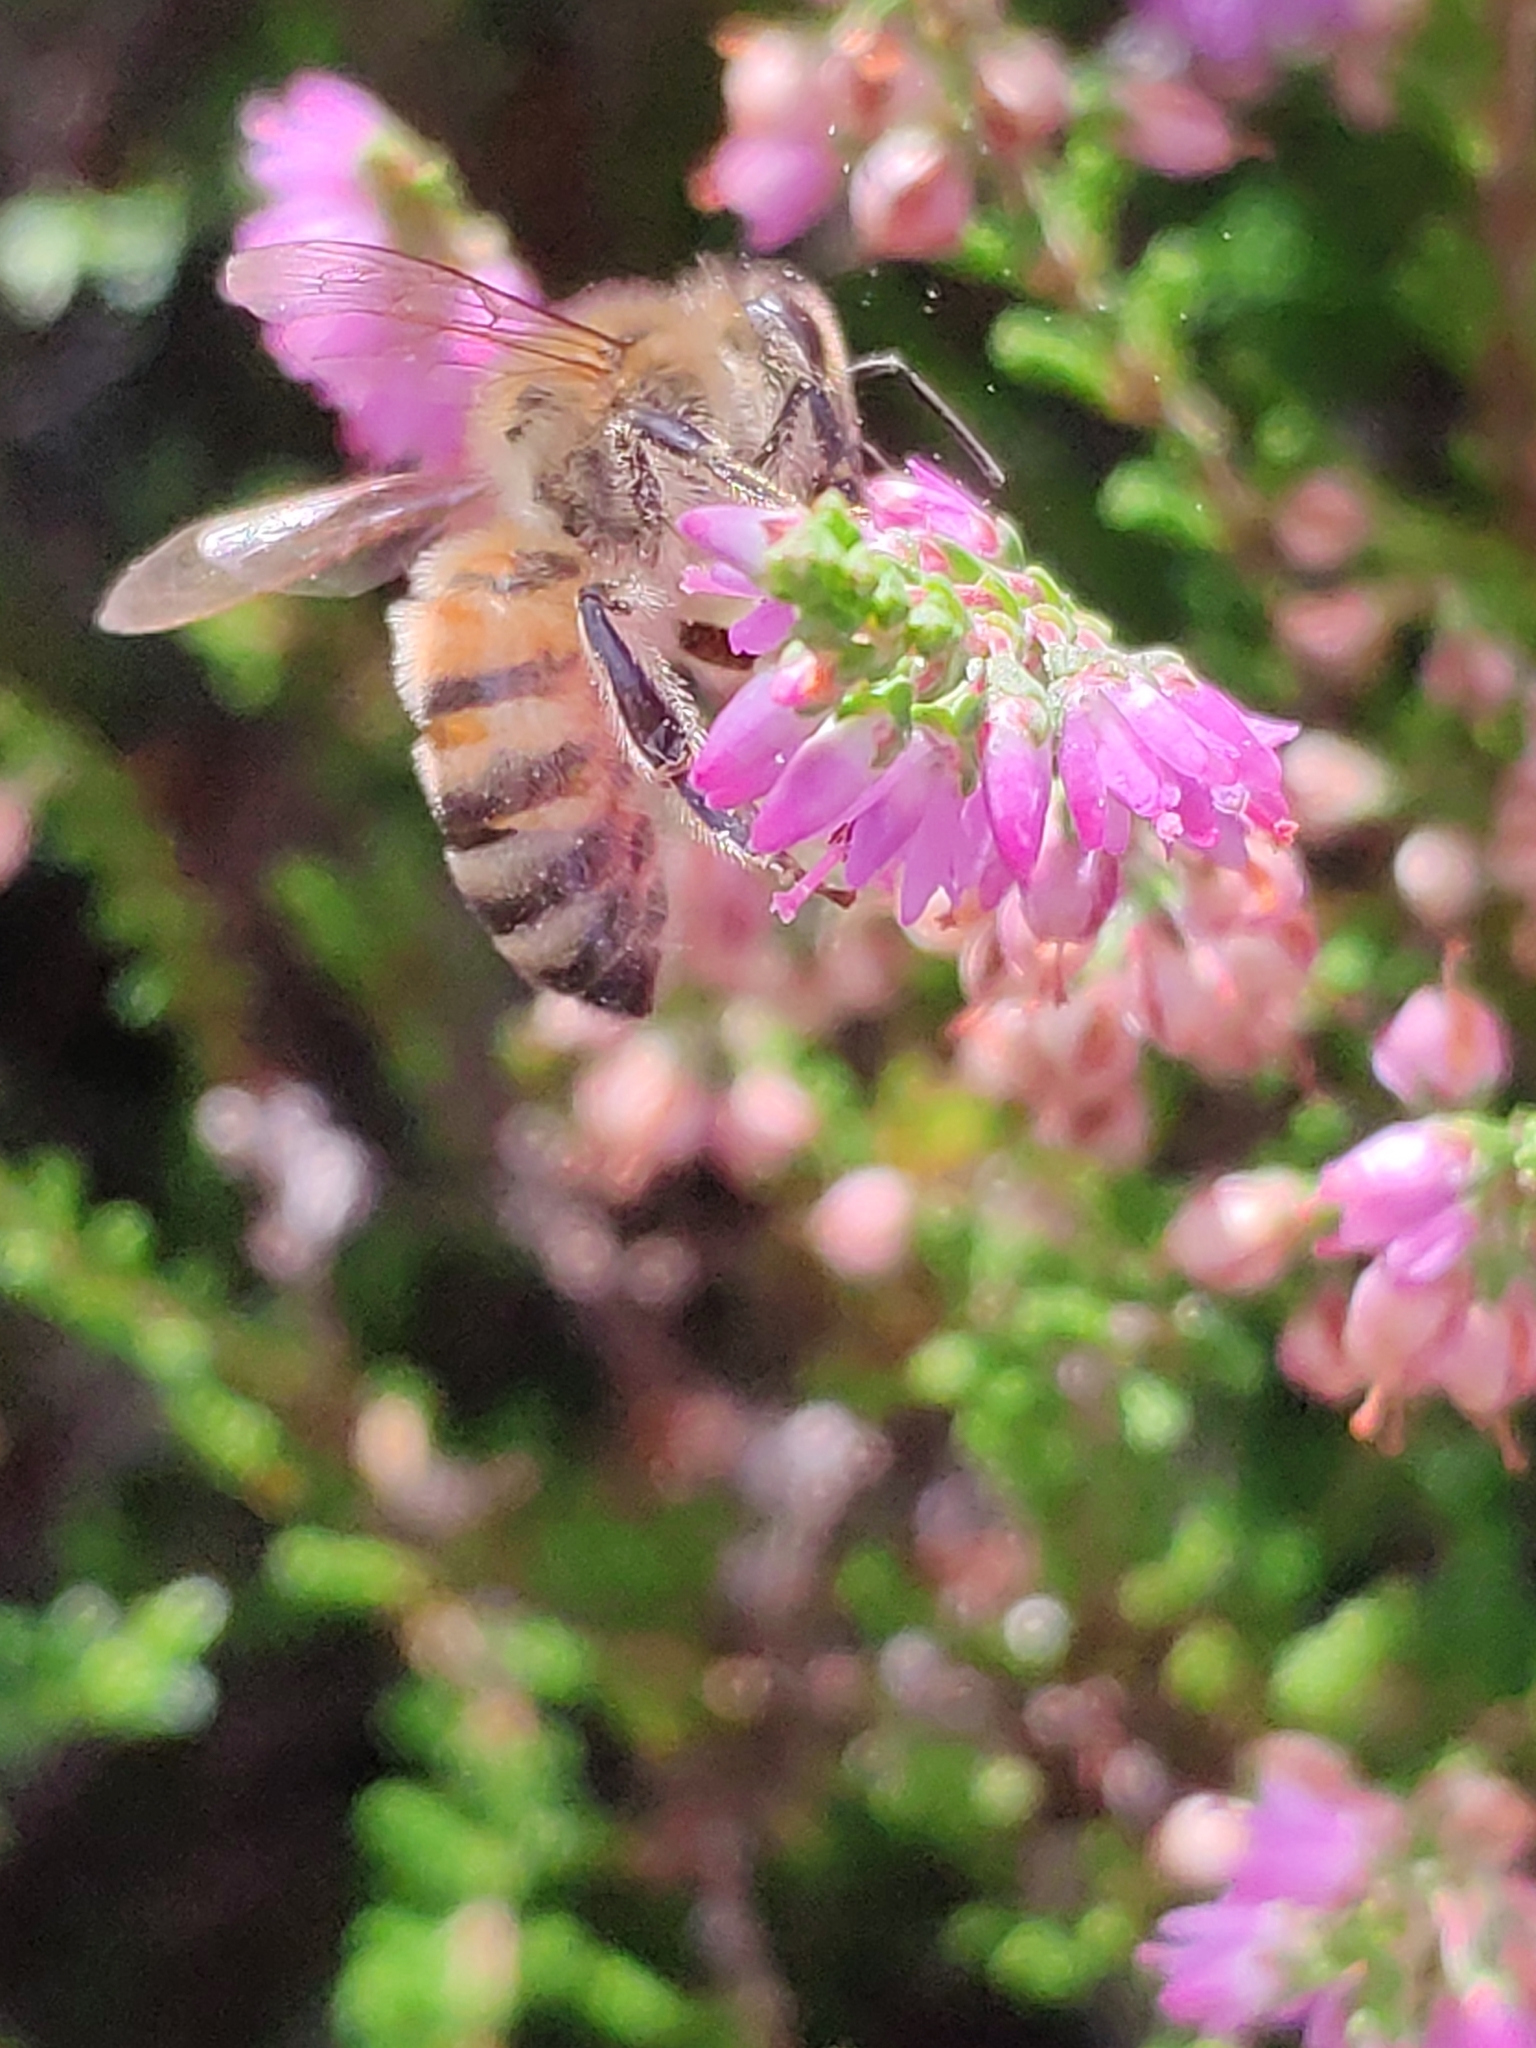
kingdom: Animalia
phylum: Arthropoda
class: Insecta
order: Hymenoptera
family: Apidae
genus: Apis
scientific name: Apis mellifera
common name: Honey bee
